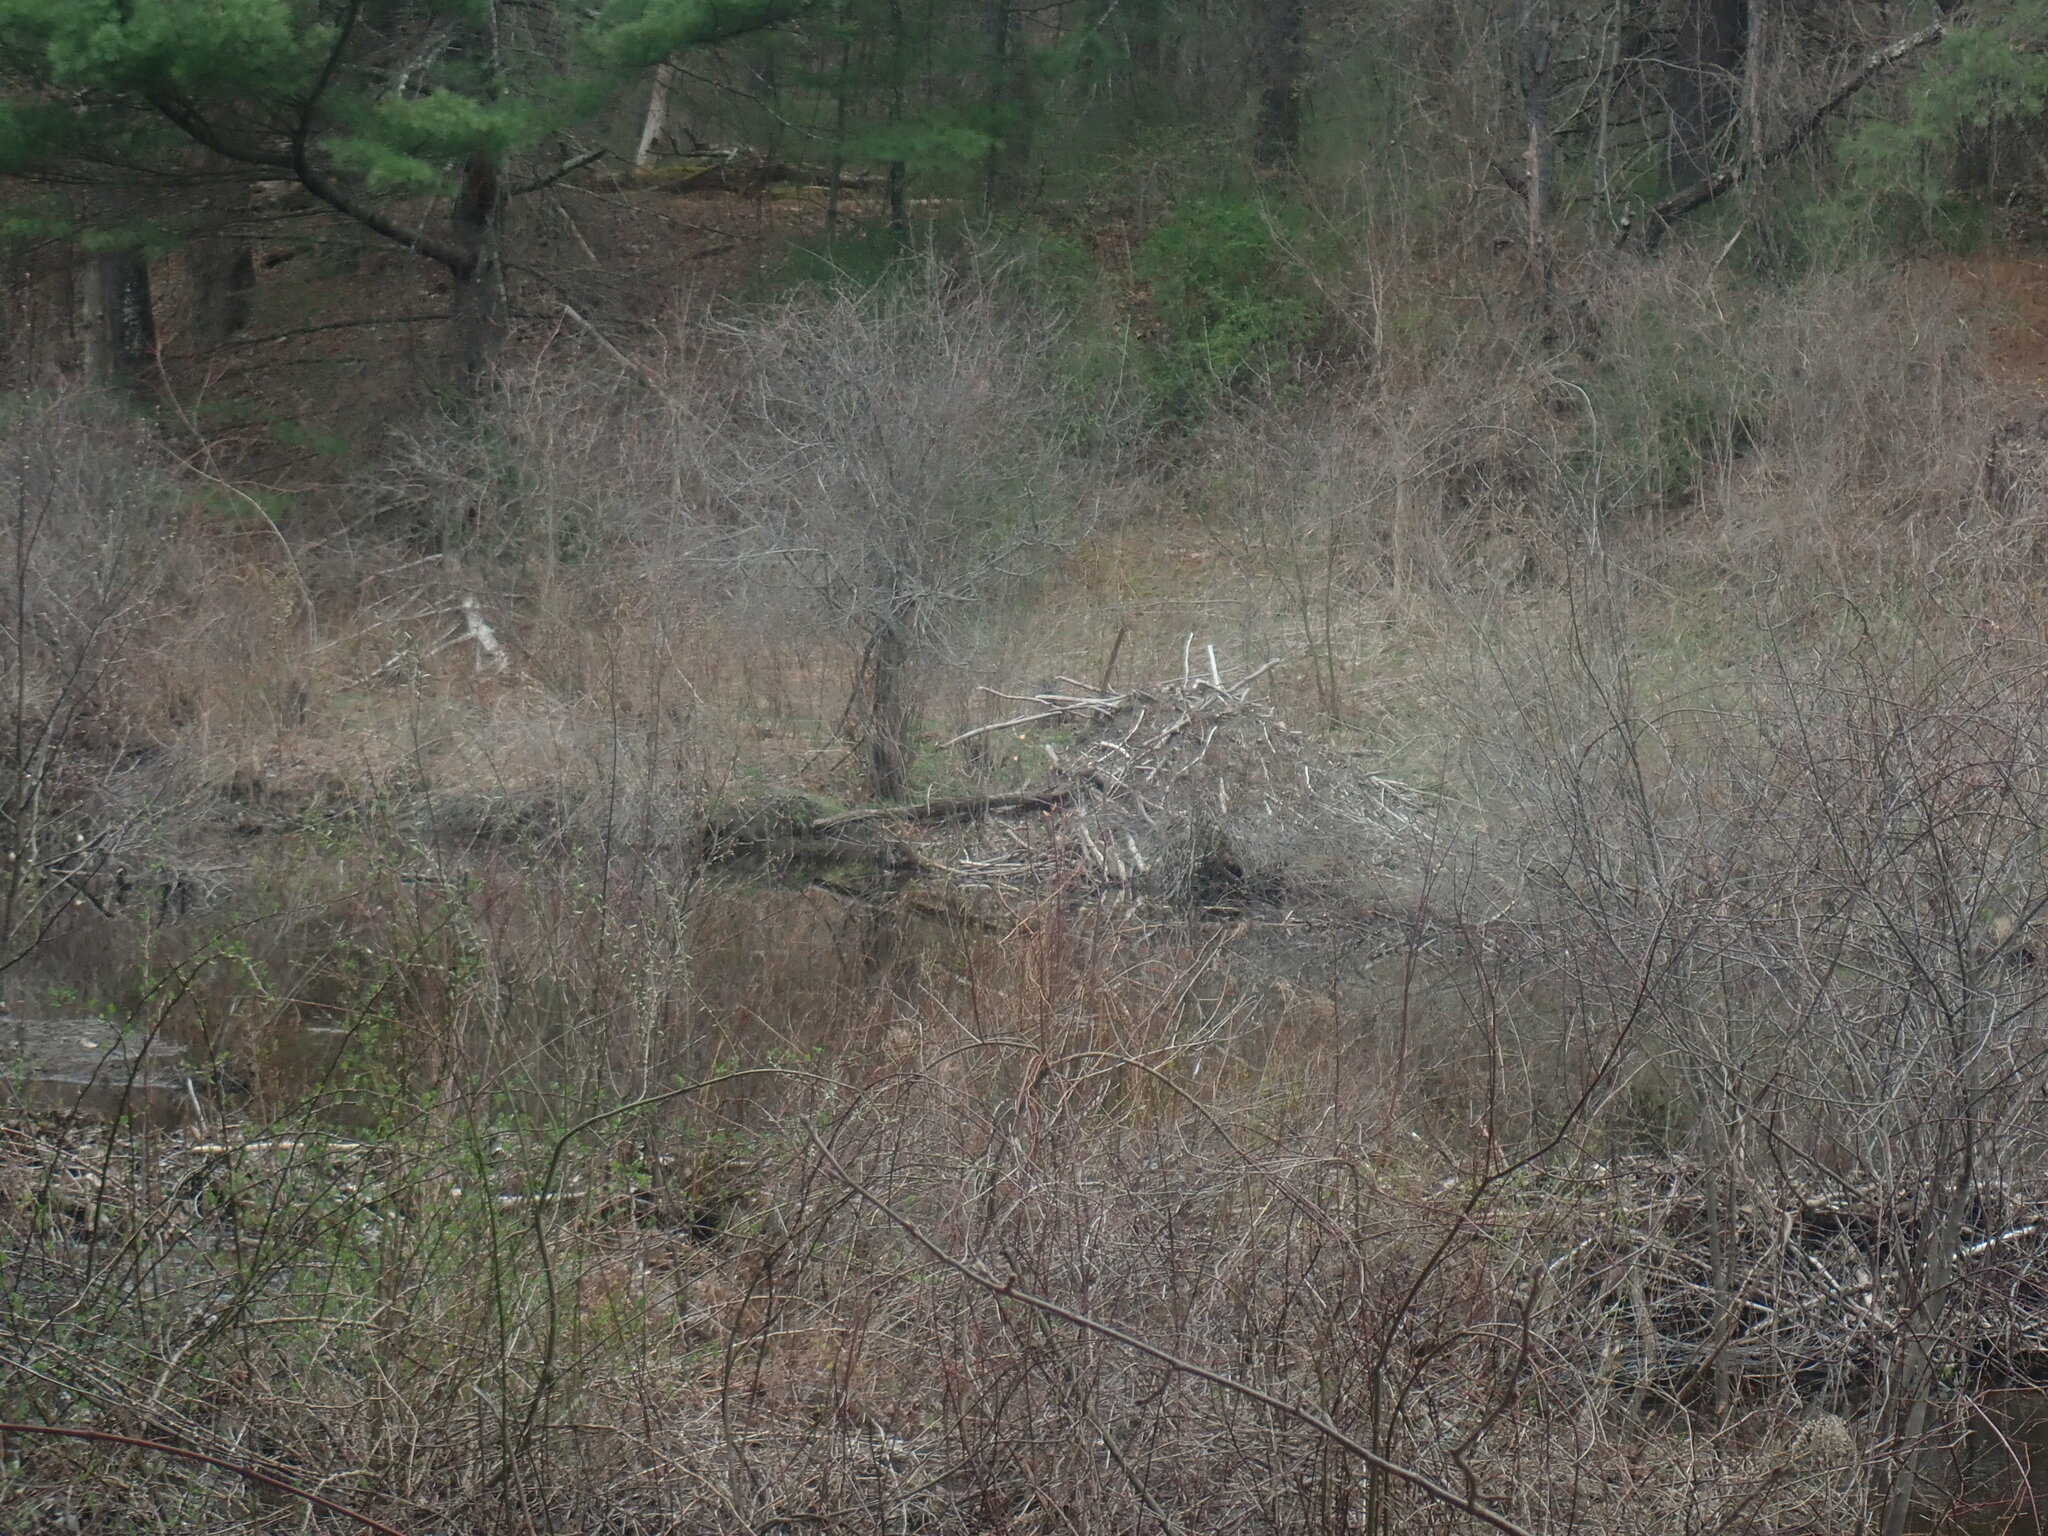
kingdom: Animalia
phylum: Chordata
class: Mammalia
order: Rodentia
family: Castoridae
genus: Castor
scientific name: Castor canadensis
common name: American beaver
